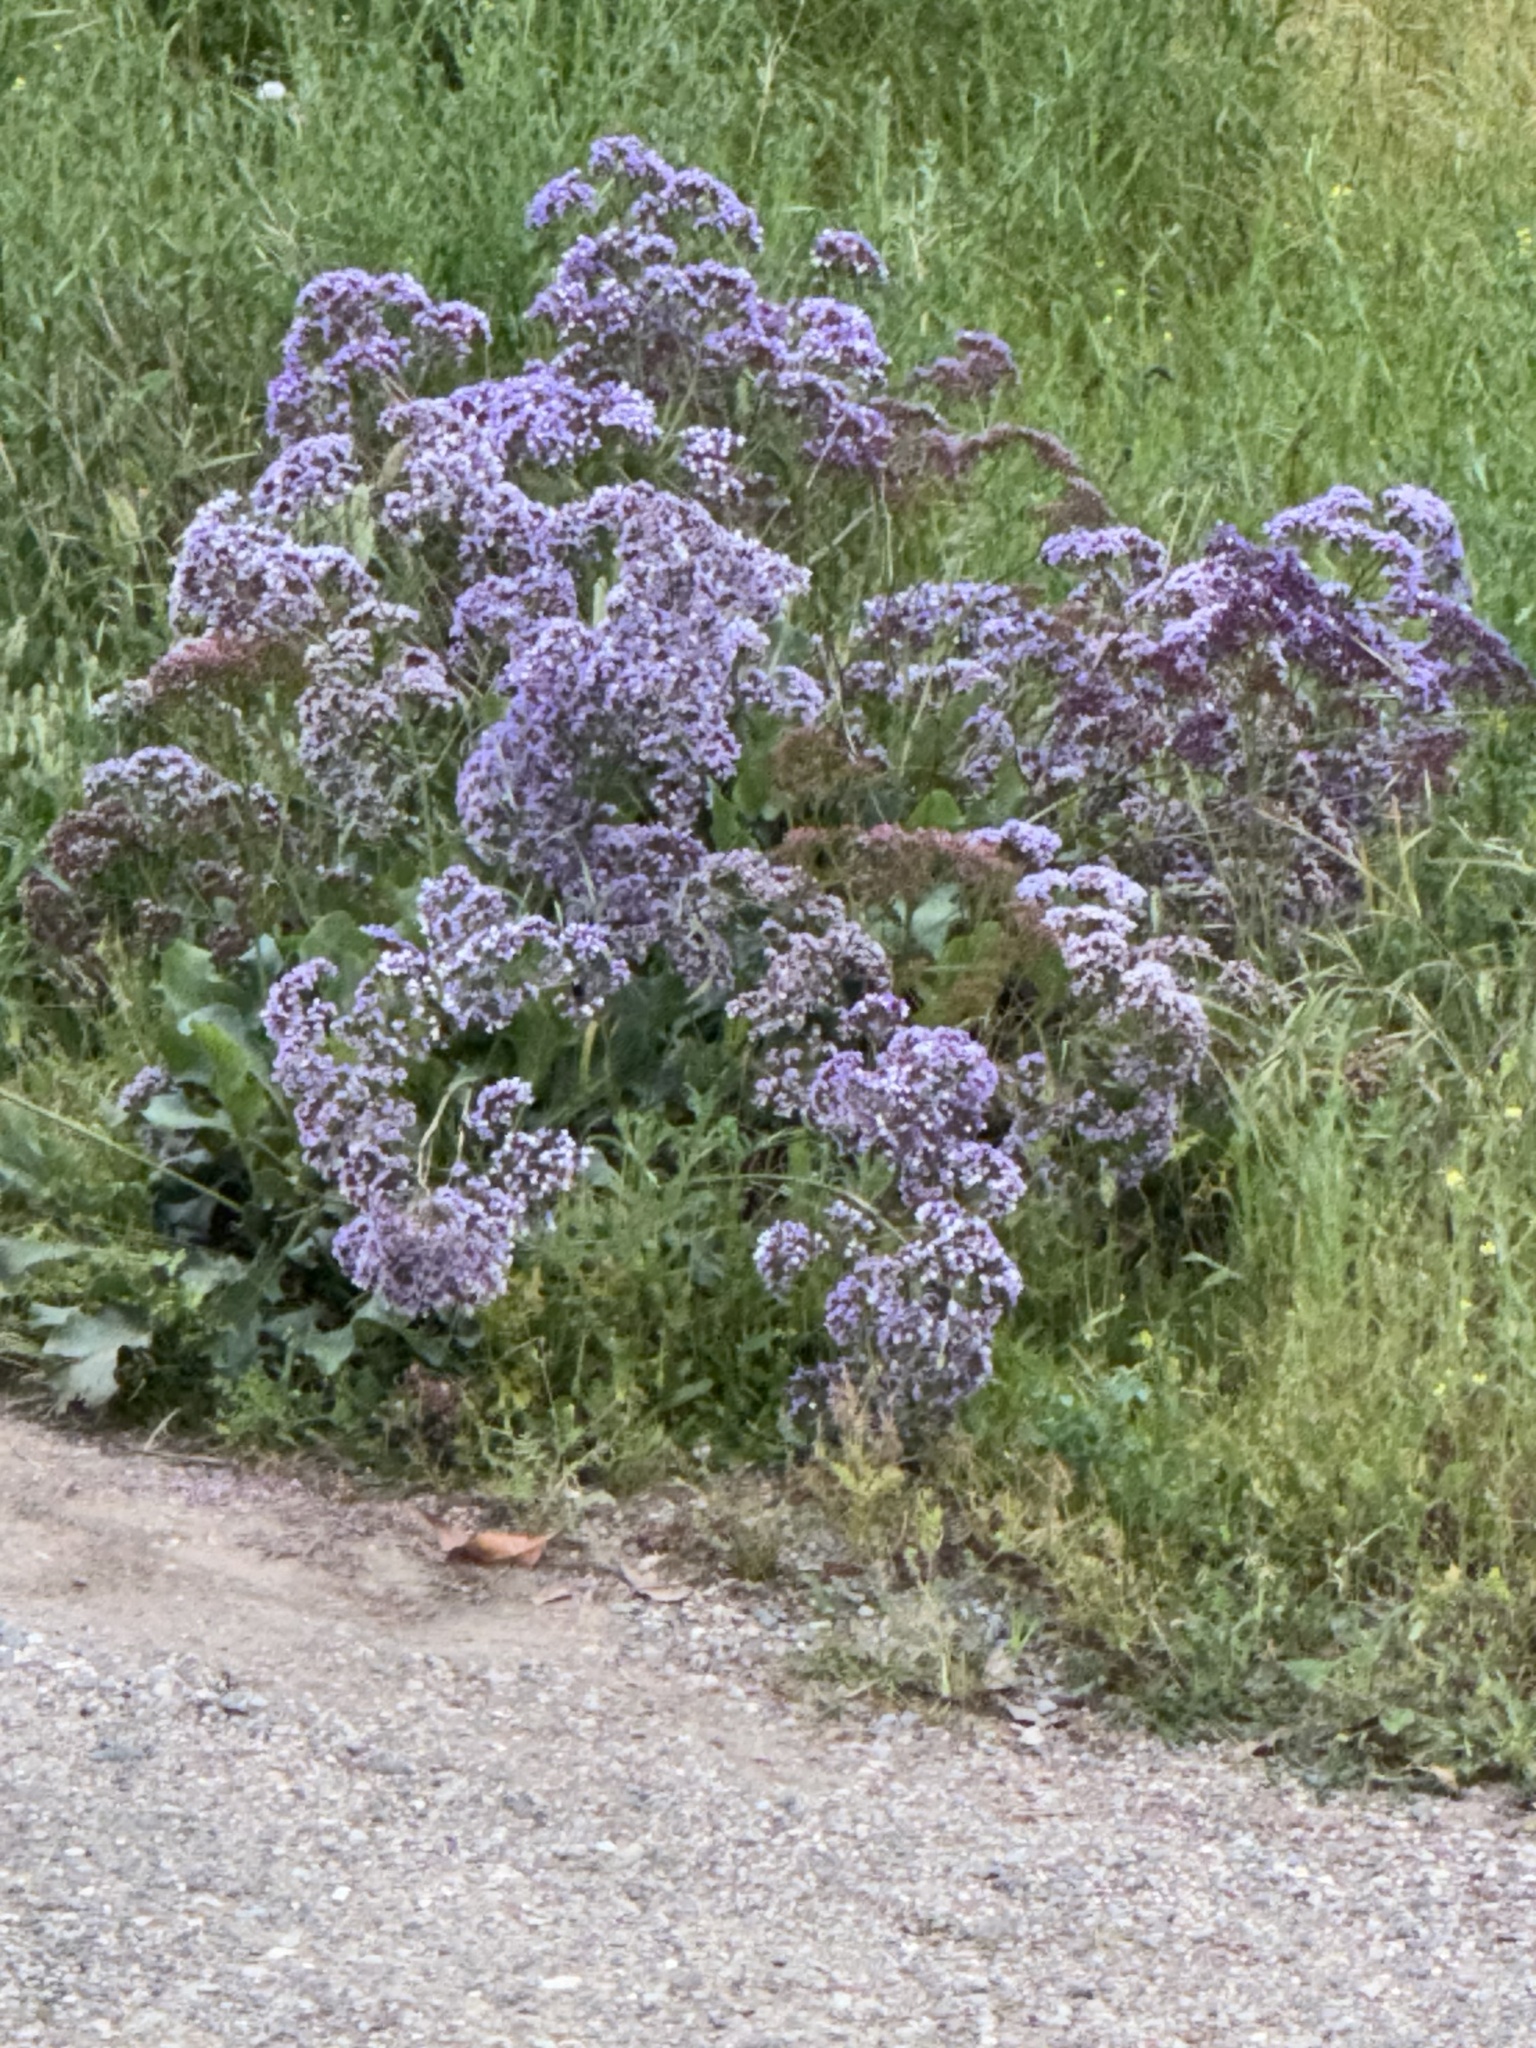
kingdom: Plantae
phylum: Tracheophyta
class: Magnoliopsida
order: Caryophyllales
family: Plumbaginaceae
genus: Limonium
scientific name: Limonium perezii
